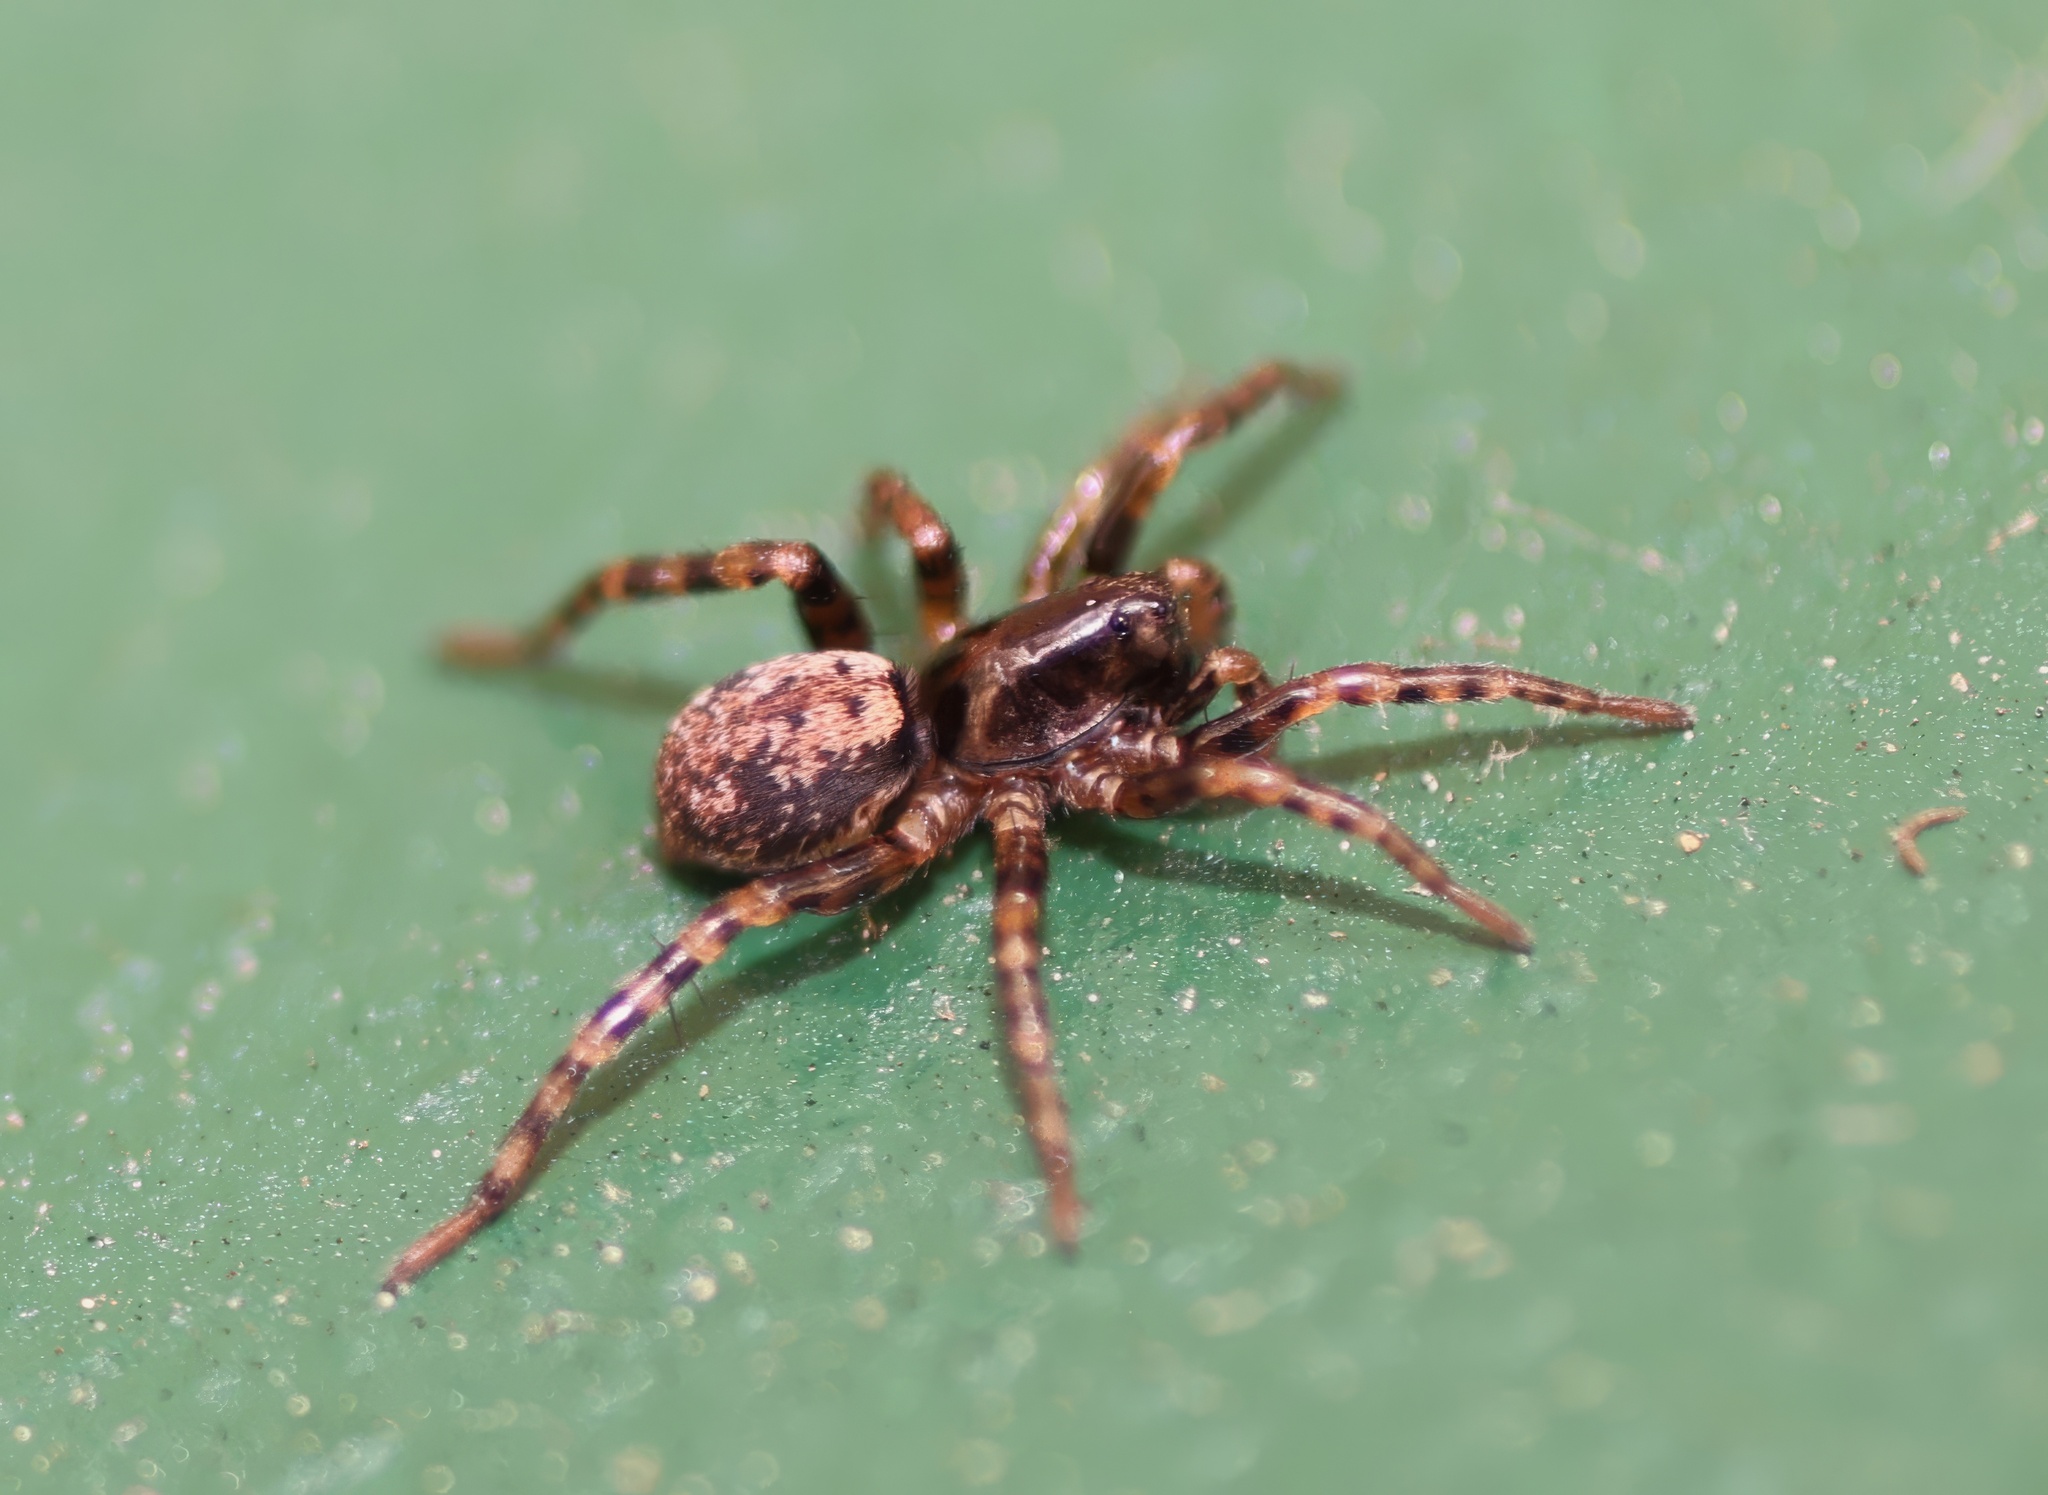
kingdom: Animalia
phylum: Arthropoda
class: Arachnida
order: Araneae
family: Lycosidae
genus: Allocosa
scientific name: Allocosa subparva
